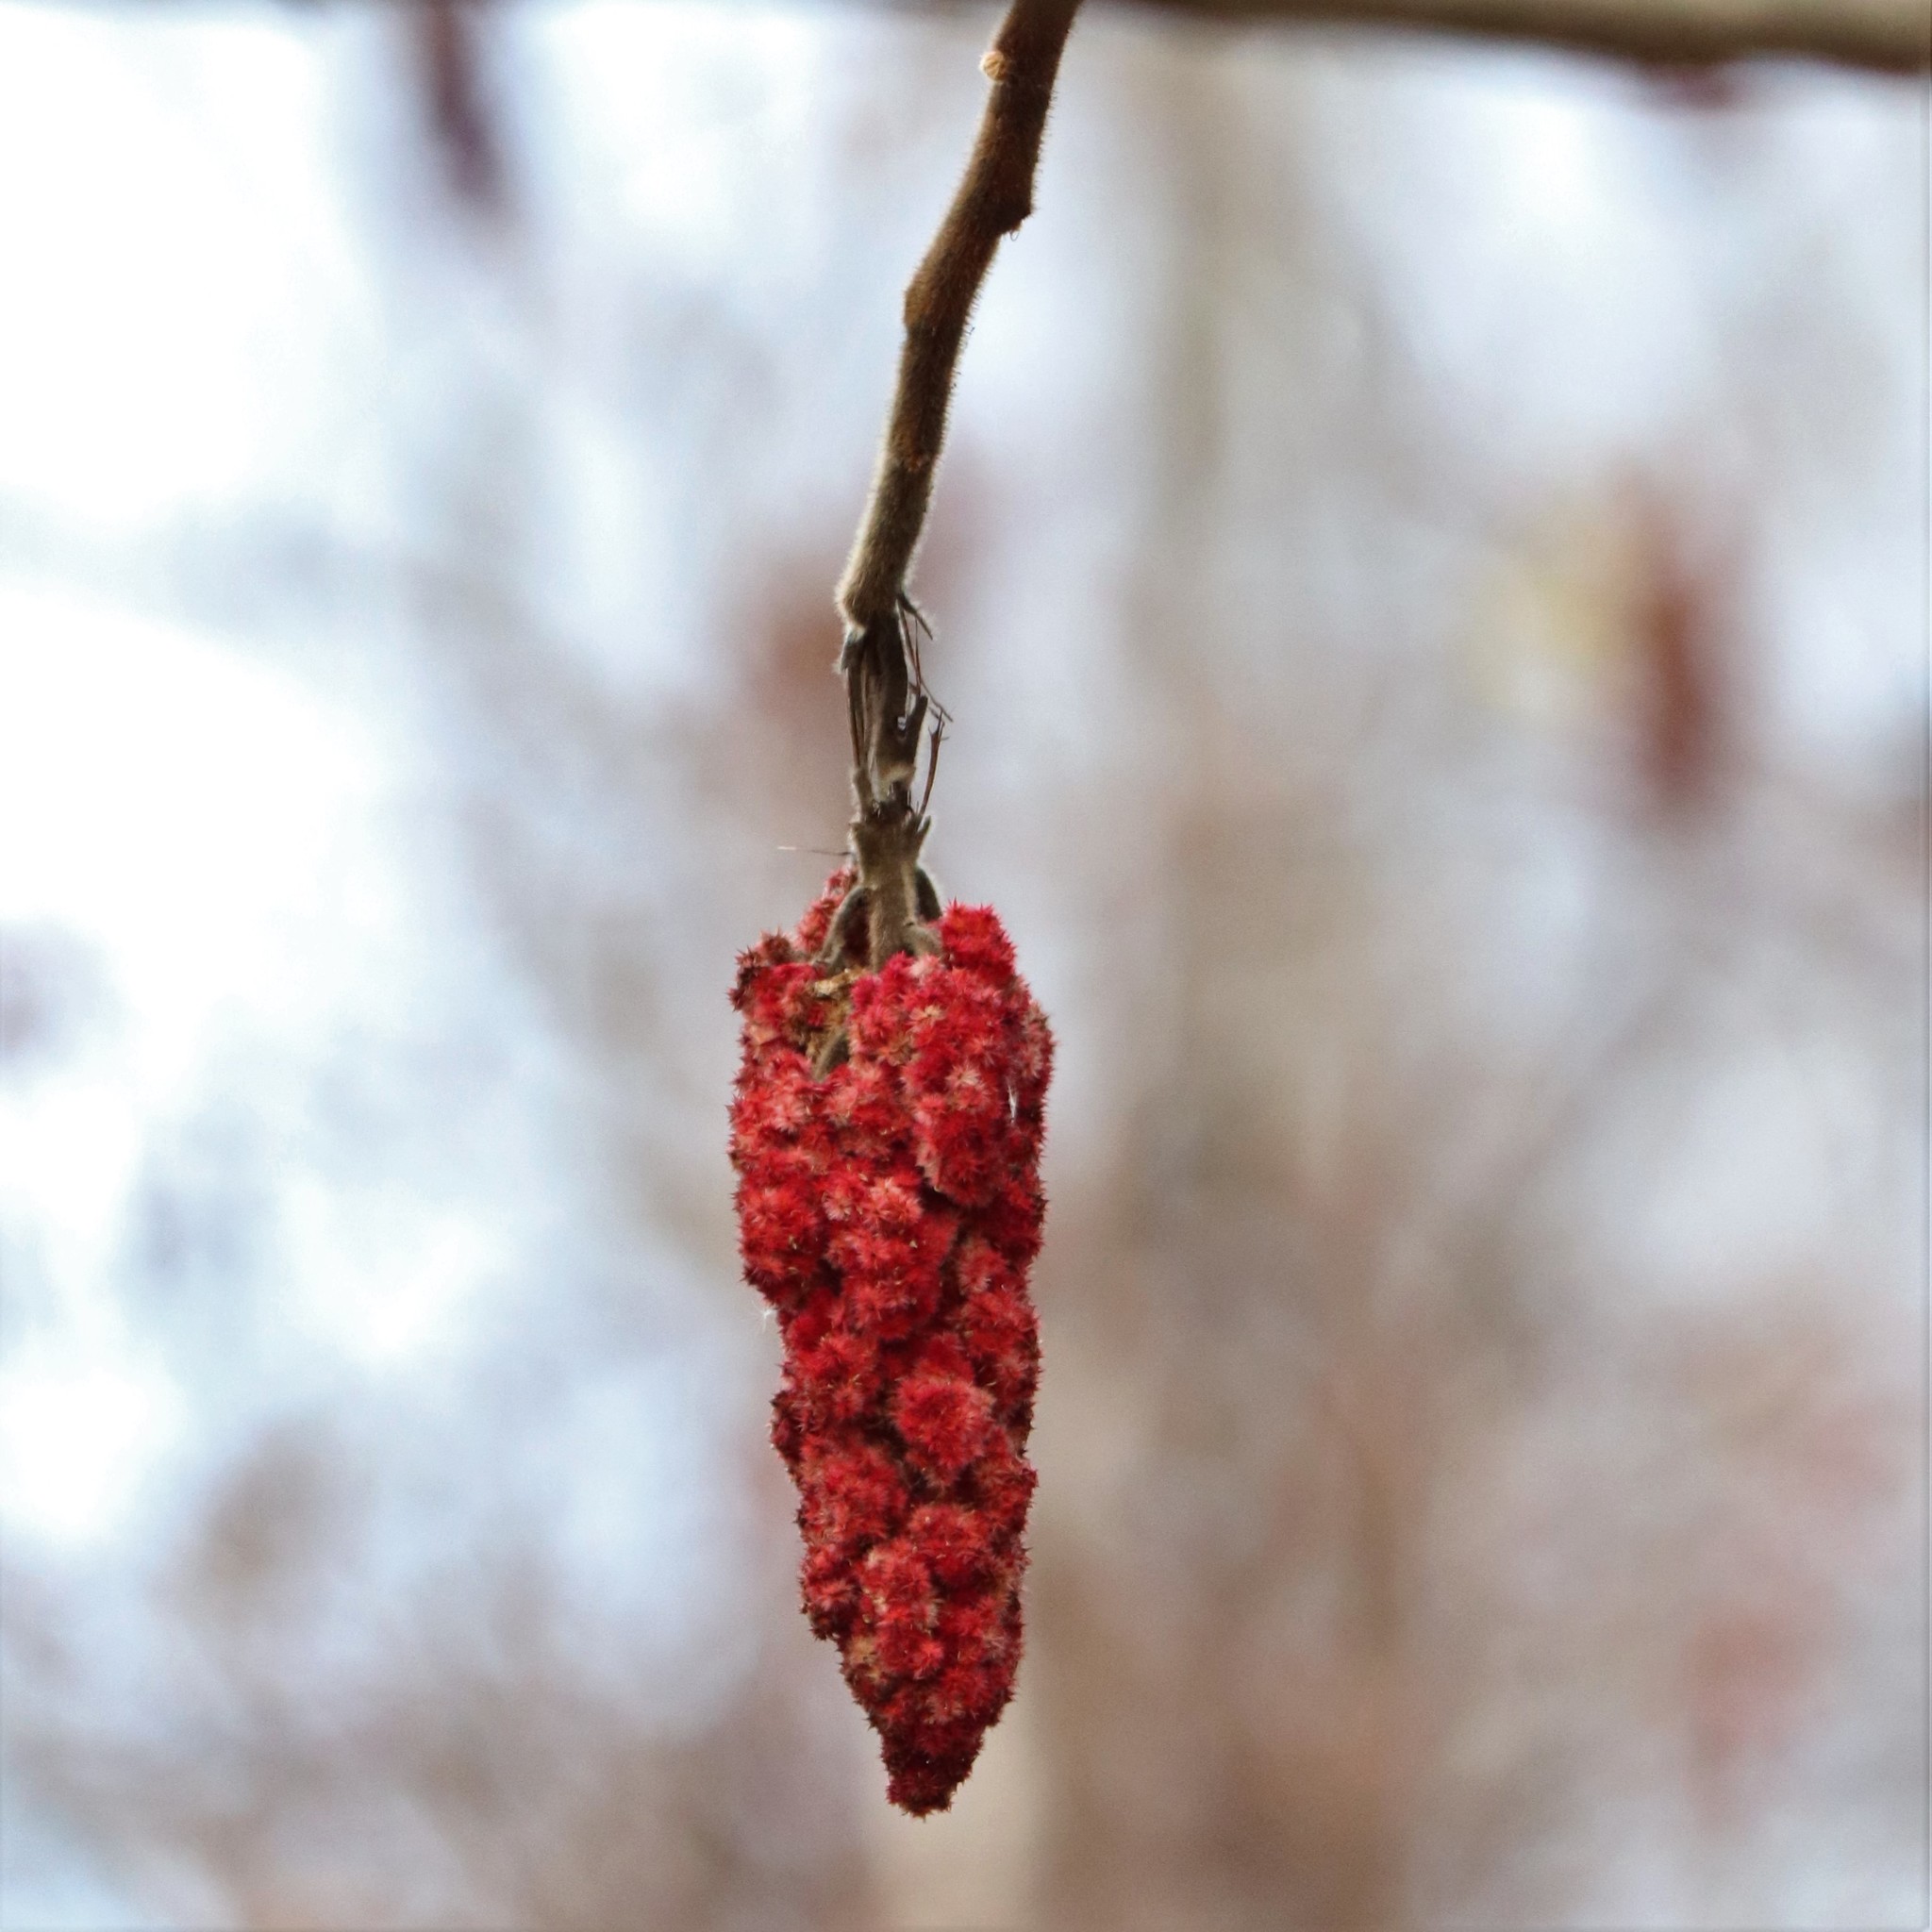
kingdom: Plantae
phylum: Tracheophyta
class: Magnoliopsida
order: Sapindales
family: Anacardiaceae
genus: Rhus
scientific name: Rhus typhina
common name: Staghorn sumac
